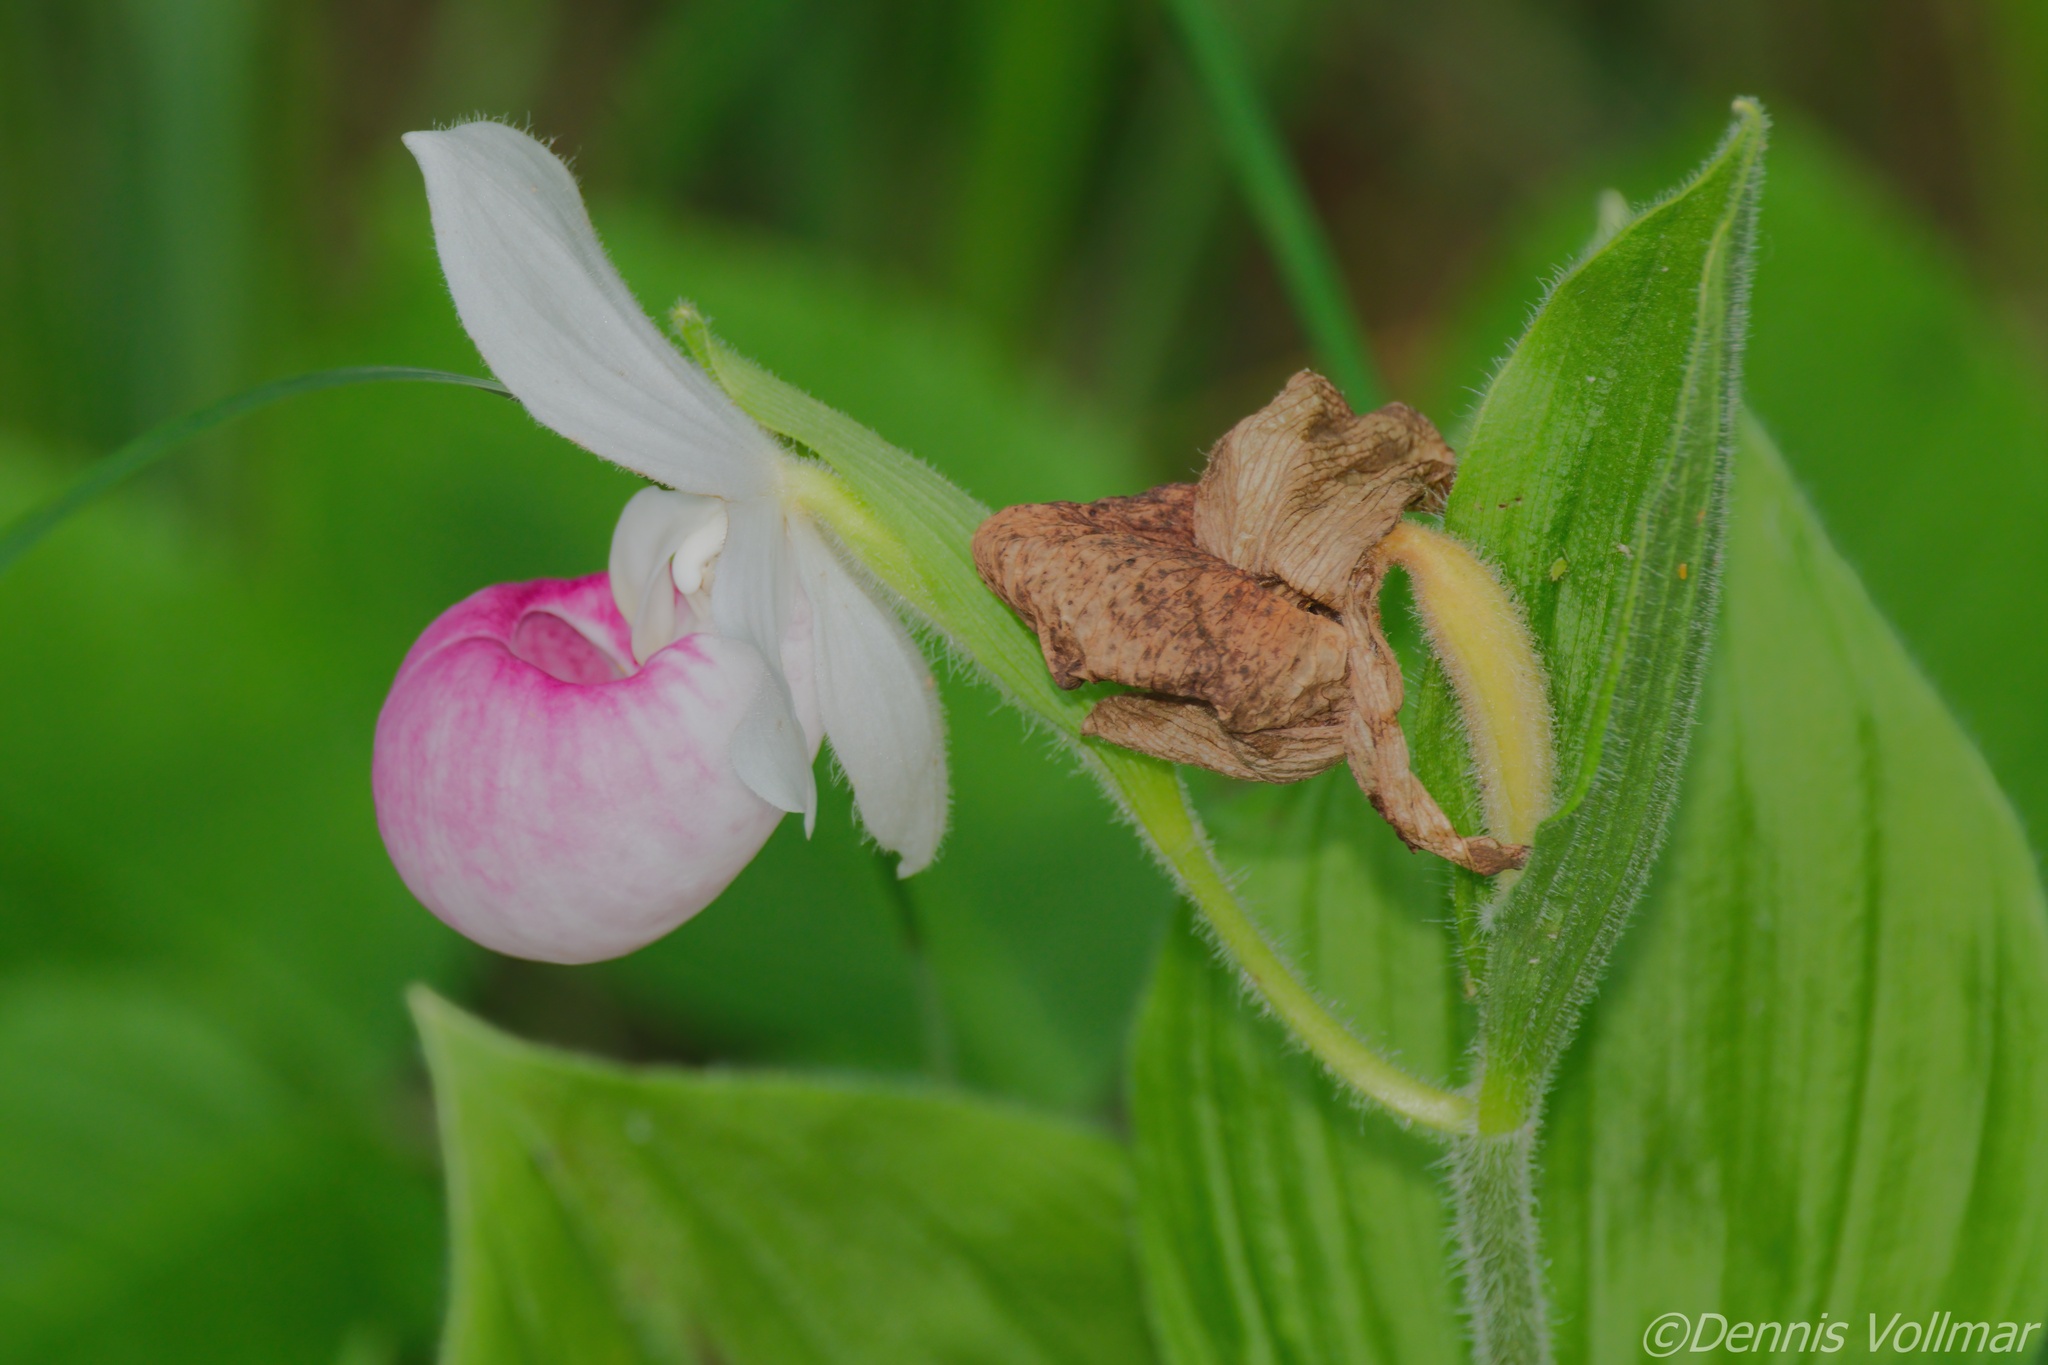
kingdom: Plantae
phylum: Tracheophyta
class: Liliopsida
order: Asparagales
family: Orchidaceae
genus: Cypripedium
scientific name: Cypripedium reginae
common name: Queen lady's-slipper
